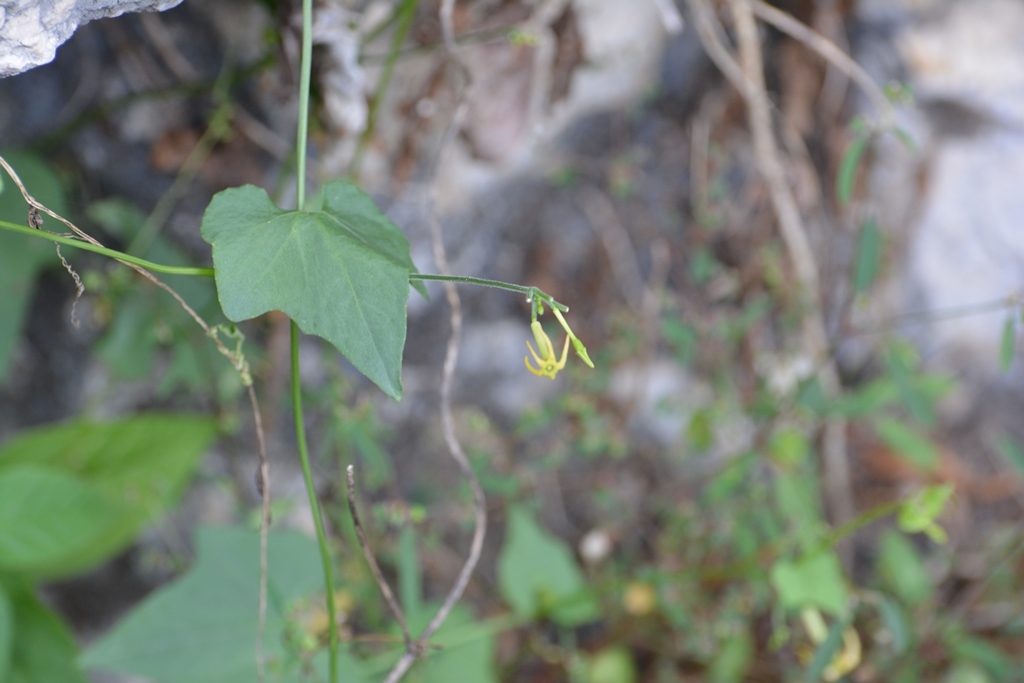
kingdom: Plantae
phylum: Tracheophyta
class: Magnoliopsida
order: Cucurbitales
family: Cucurbitaceae
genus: Cyclanthera
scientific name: Cyclanthera carthagenensis
